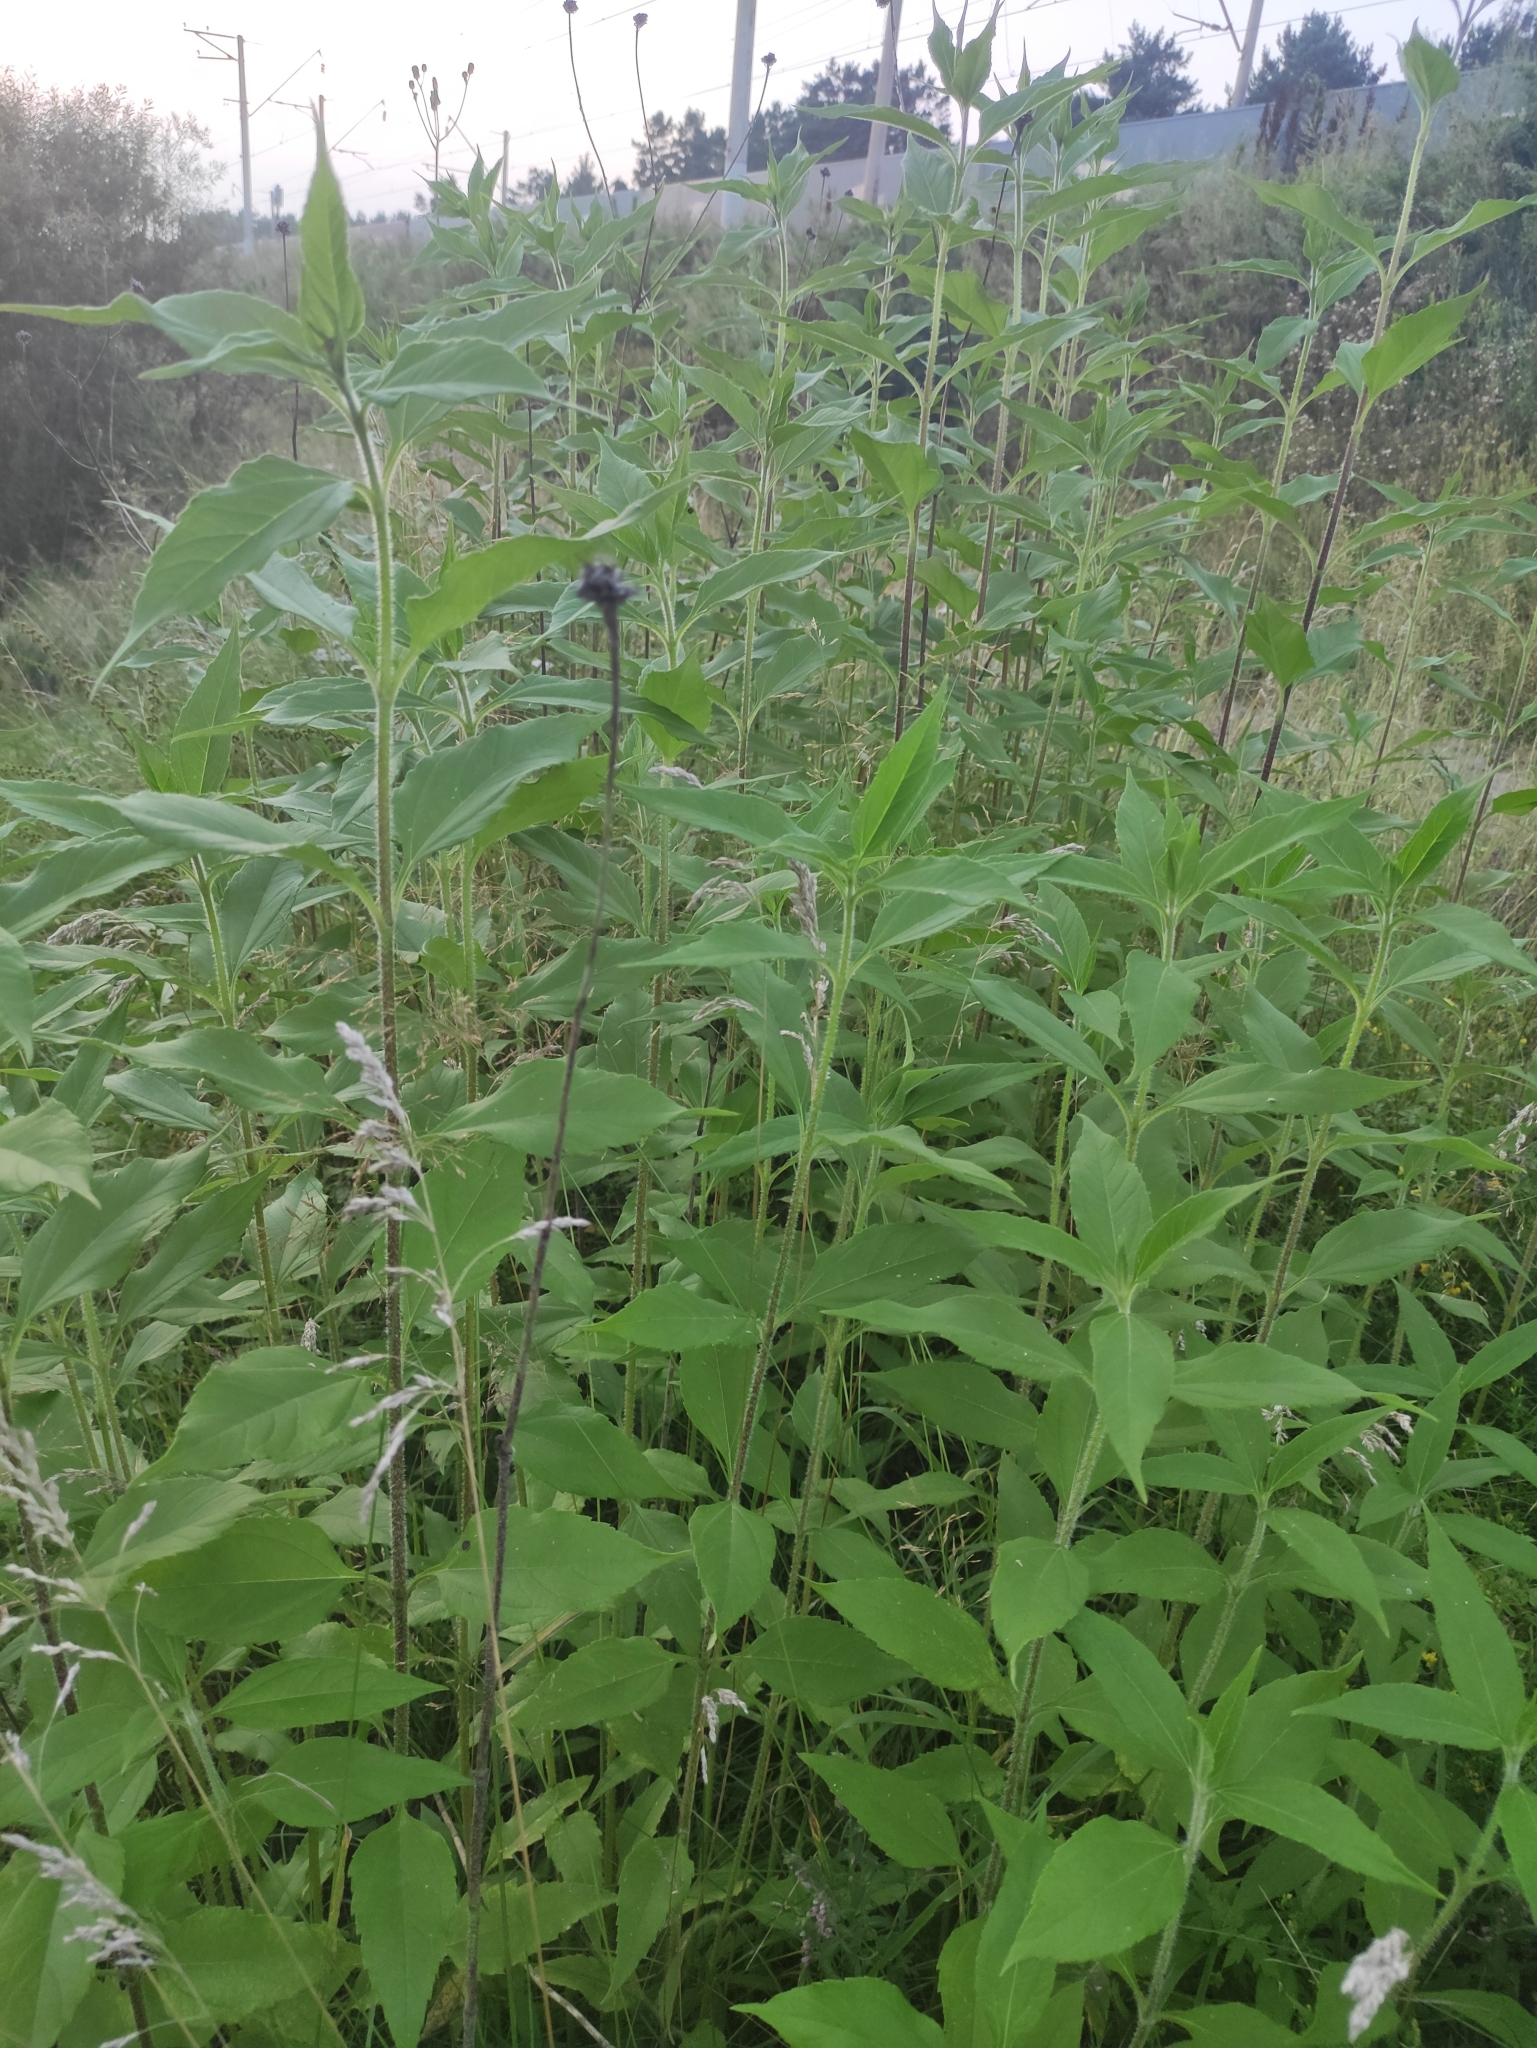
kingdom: Plantae
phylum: Tracheophyta
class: Magnoliopsida
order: Asterales
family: Asteraceae
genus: Helianthus
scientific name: Helianthus tuberosus
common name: Jerusalem artichoke
